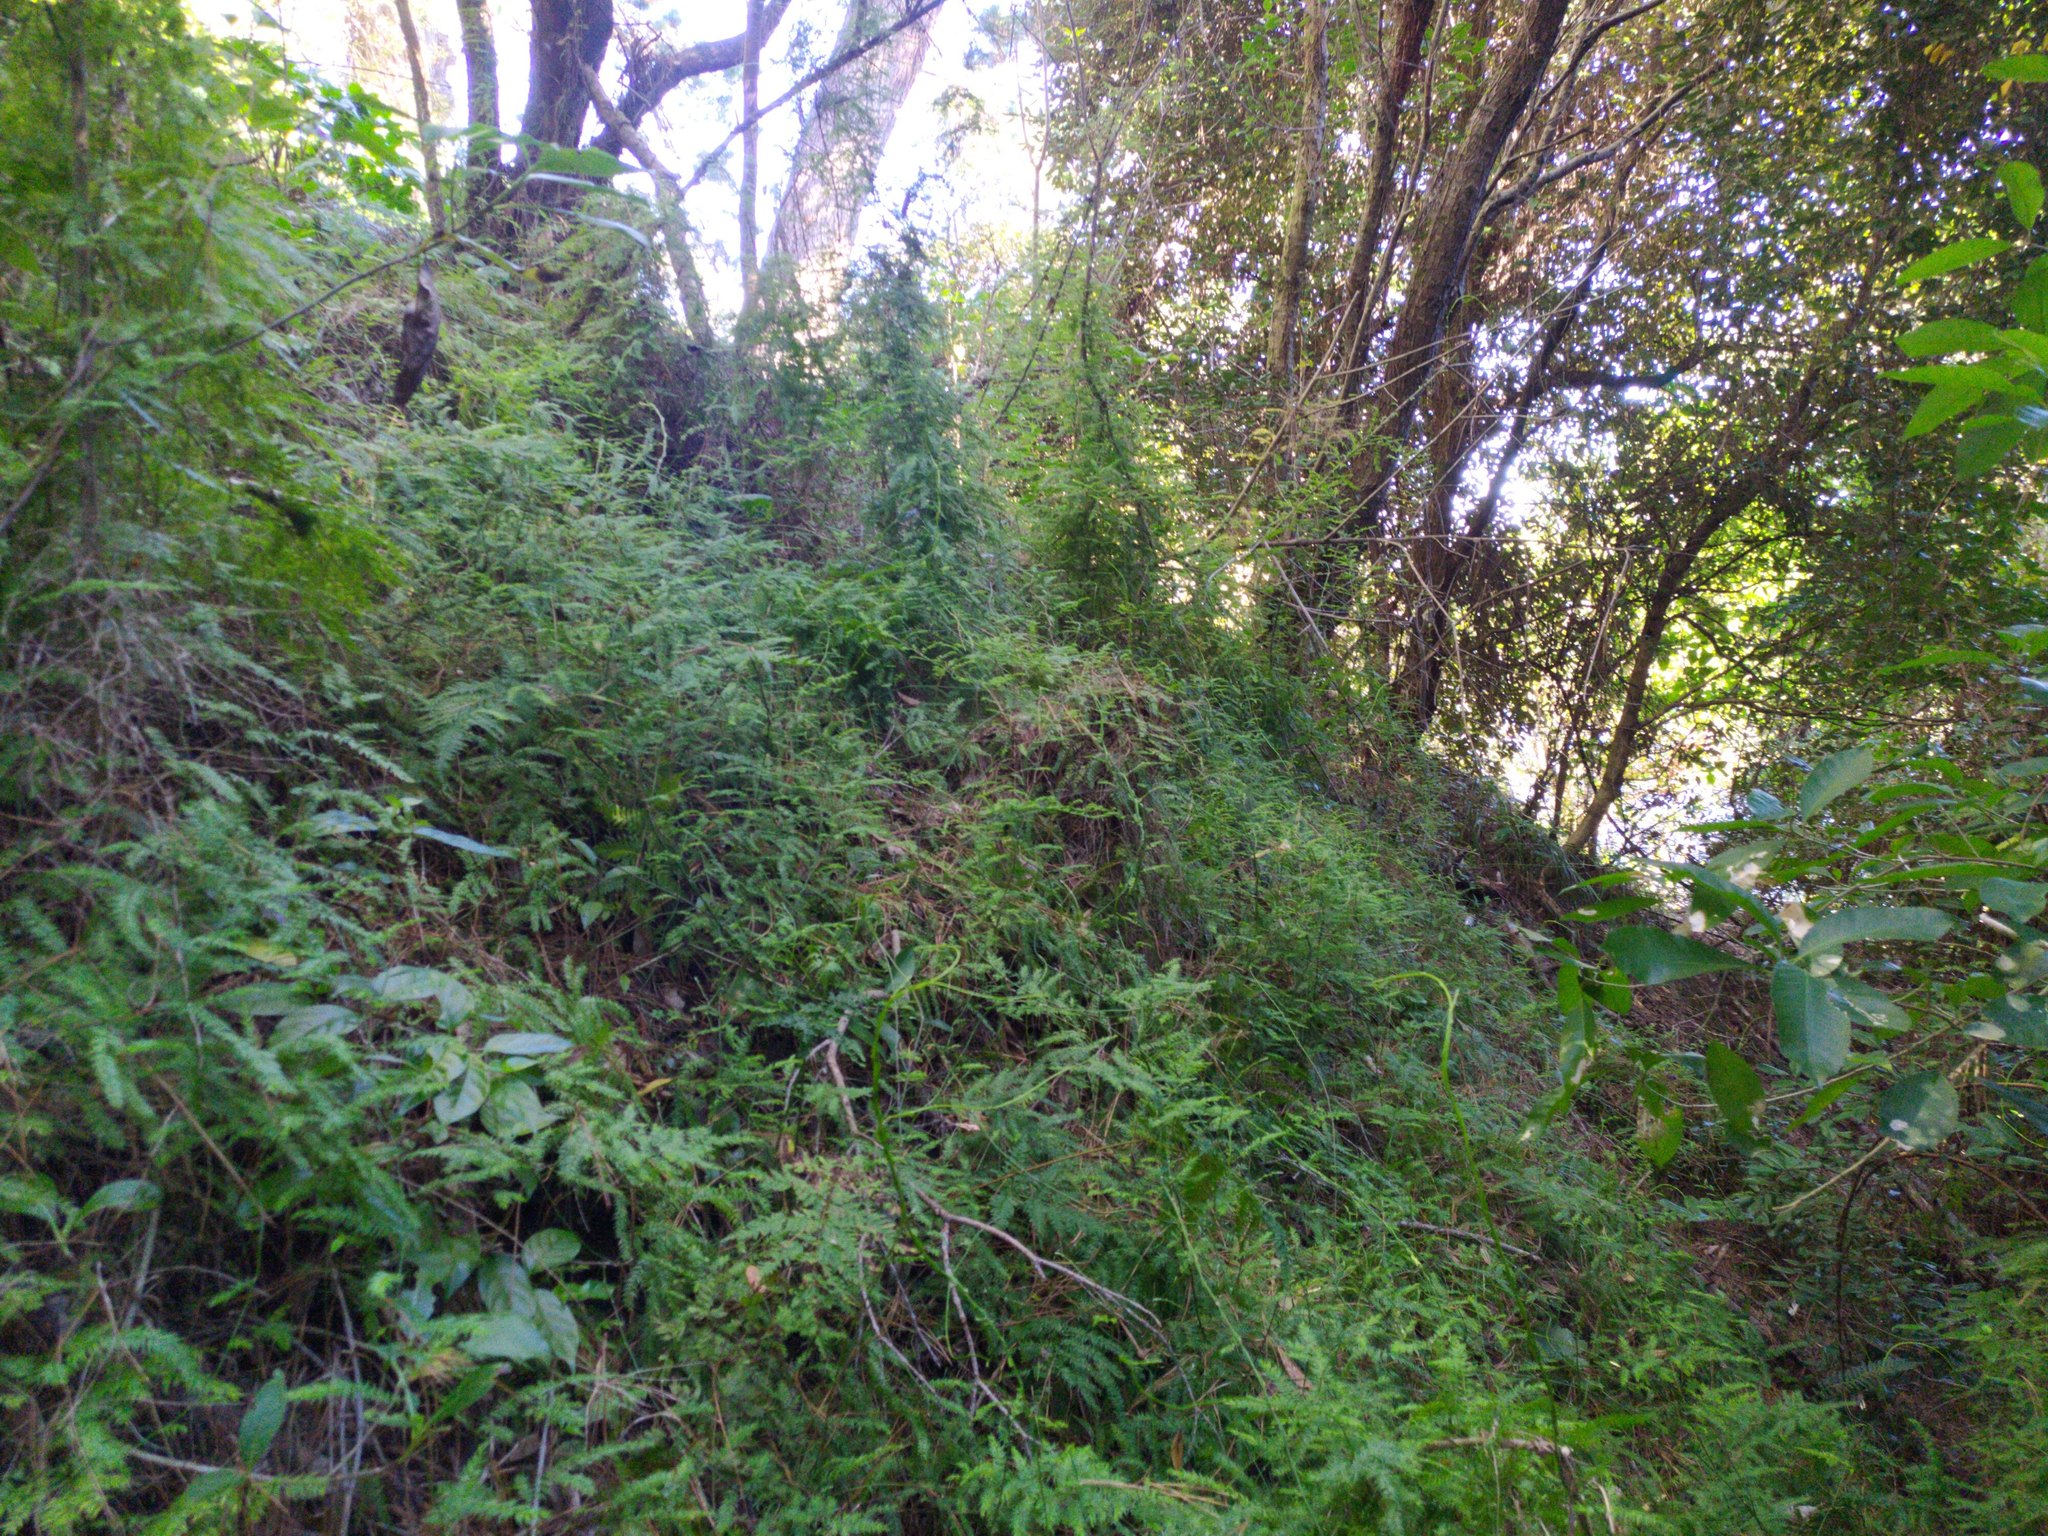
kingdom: Plantae
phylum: Tracheophyta
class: Liliopsida
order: Asparagales
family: Asparagaceae
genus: Asparagus
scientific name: Asparagus scandens
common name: Asparagus-fern
